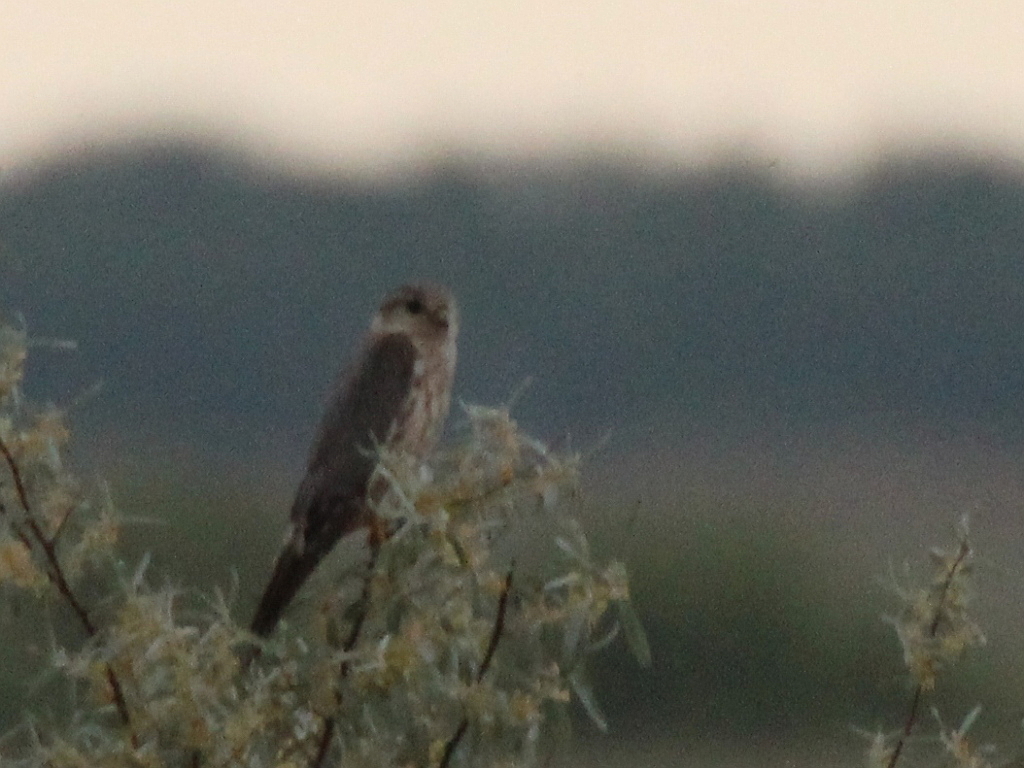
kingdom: Animalia
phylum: Chordata
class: Aves
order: Falconiformes
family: Falconidae
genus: Falco
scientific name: Falco columbarius
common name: Merlin
